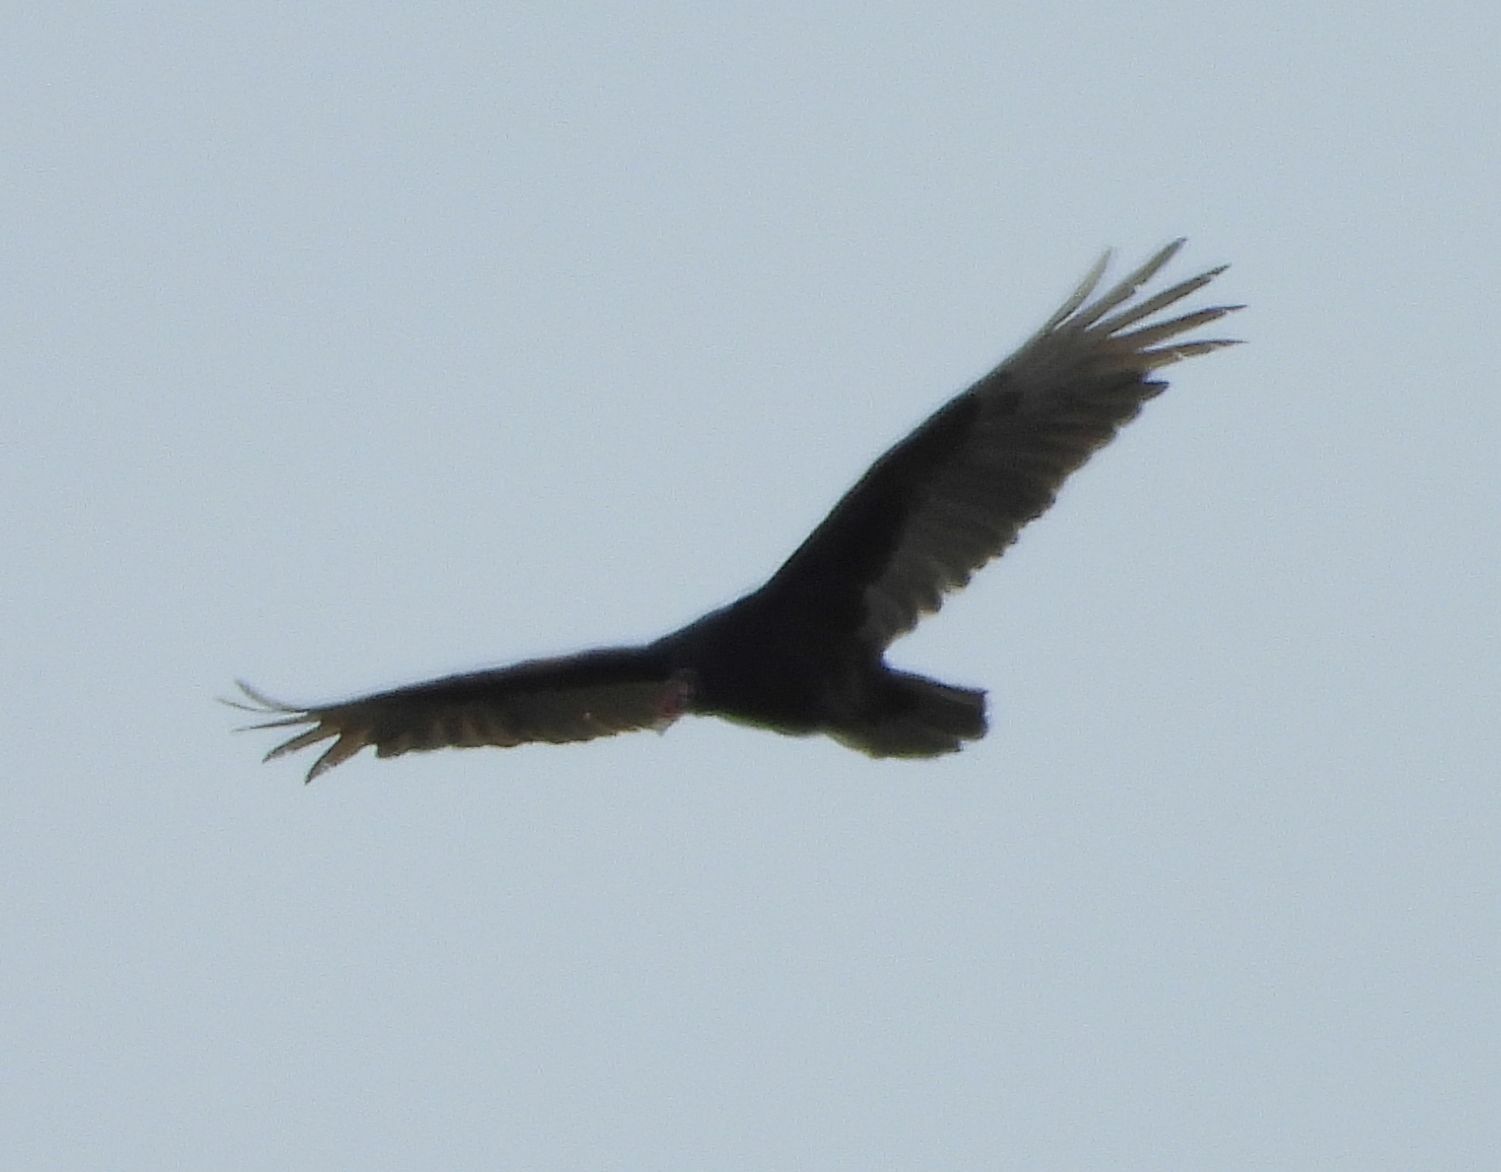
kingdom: Animalia
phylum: Chordata
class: Aves
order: Accipitriformes
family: Cathartidae
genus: Cathartes
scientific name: Cathartes aura
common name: Turkey vulture
